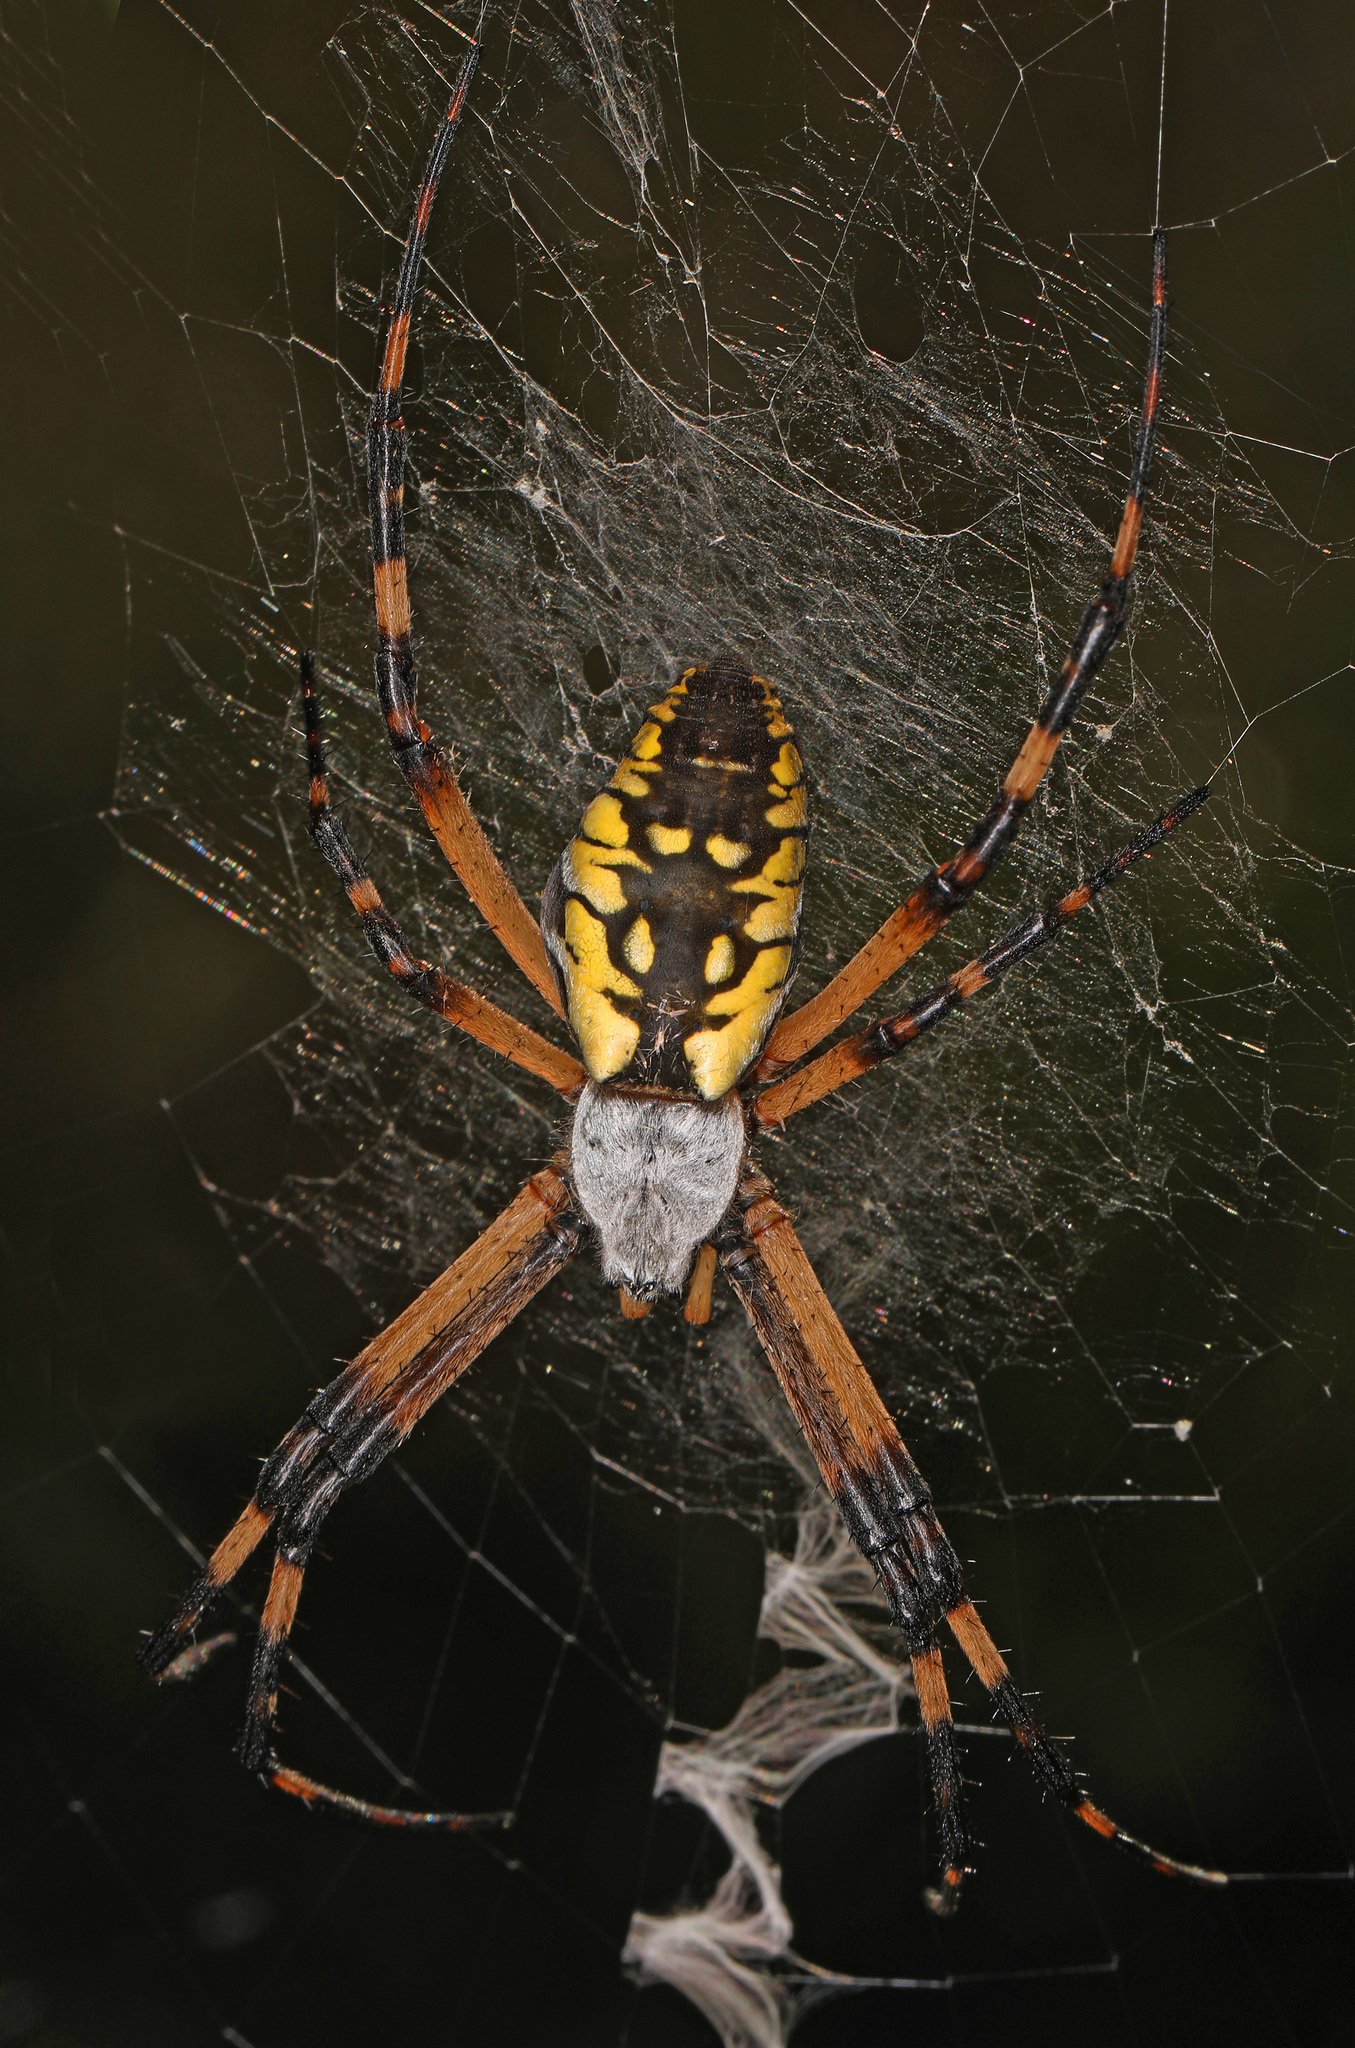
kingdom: Animalia
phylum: Arthropoda
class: Arachnida
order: Araneae
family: Araneidae
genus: Argiope
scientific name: Argiope aurantia
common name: Orb weavers
